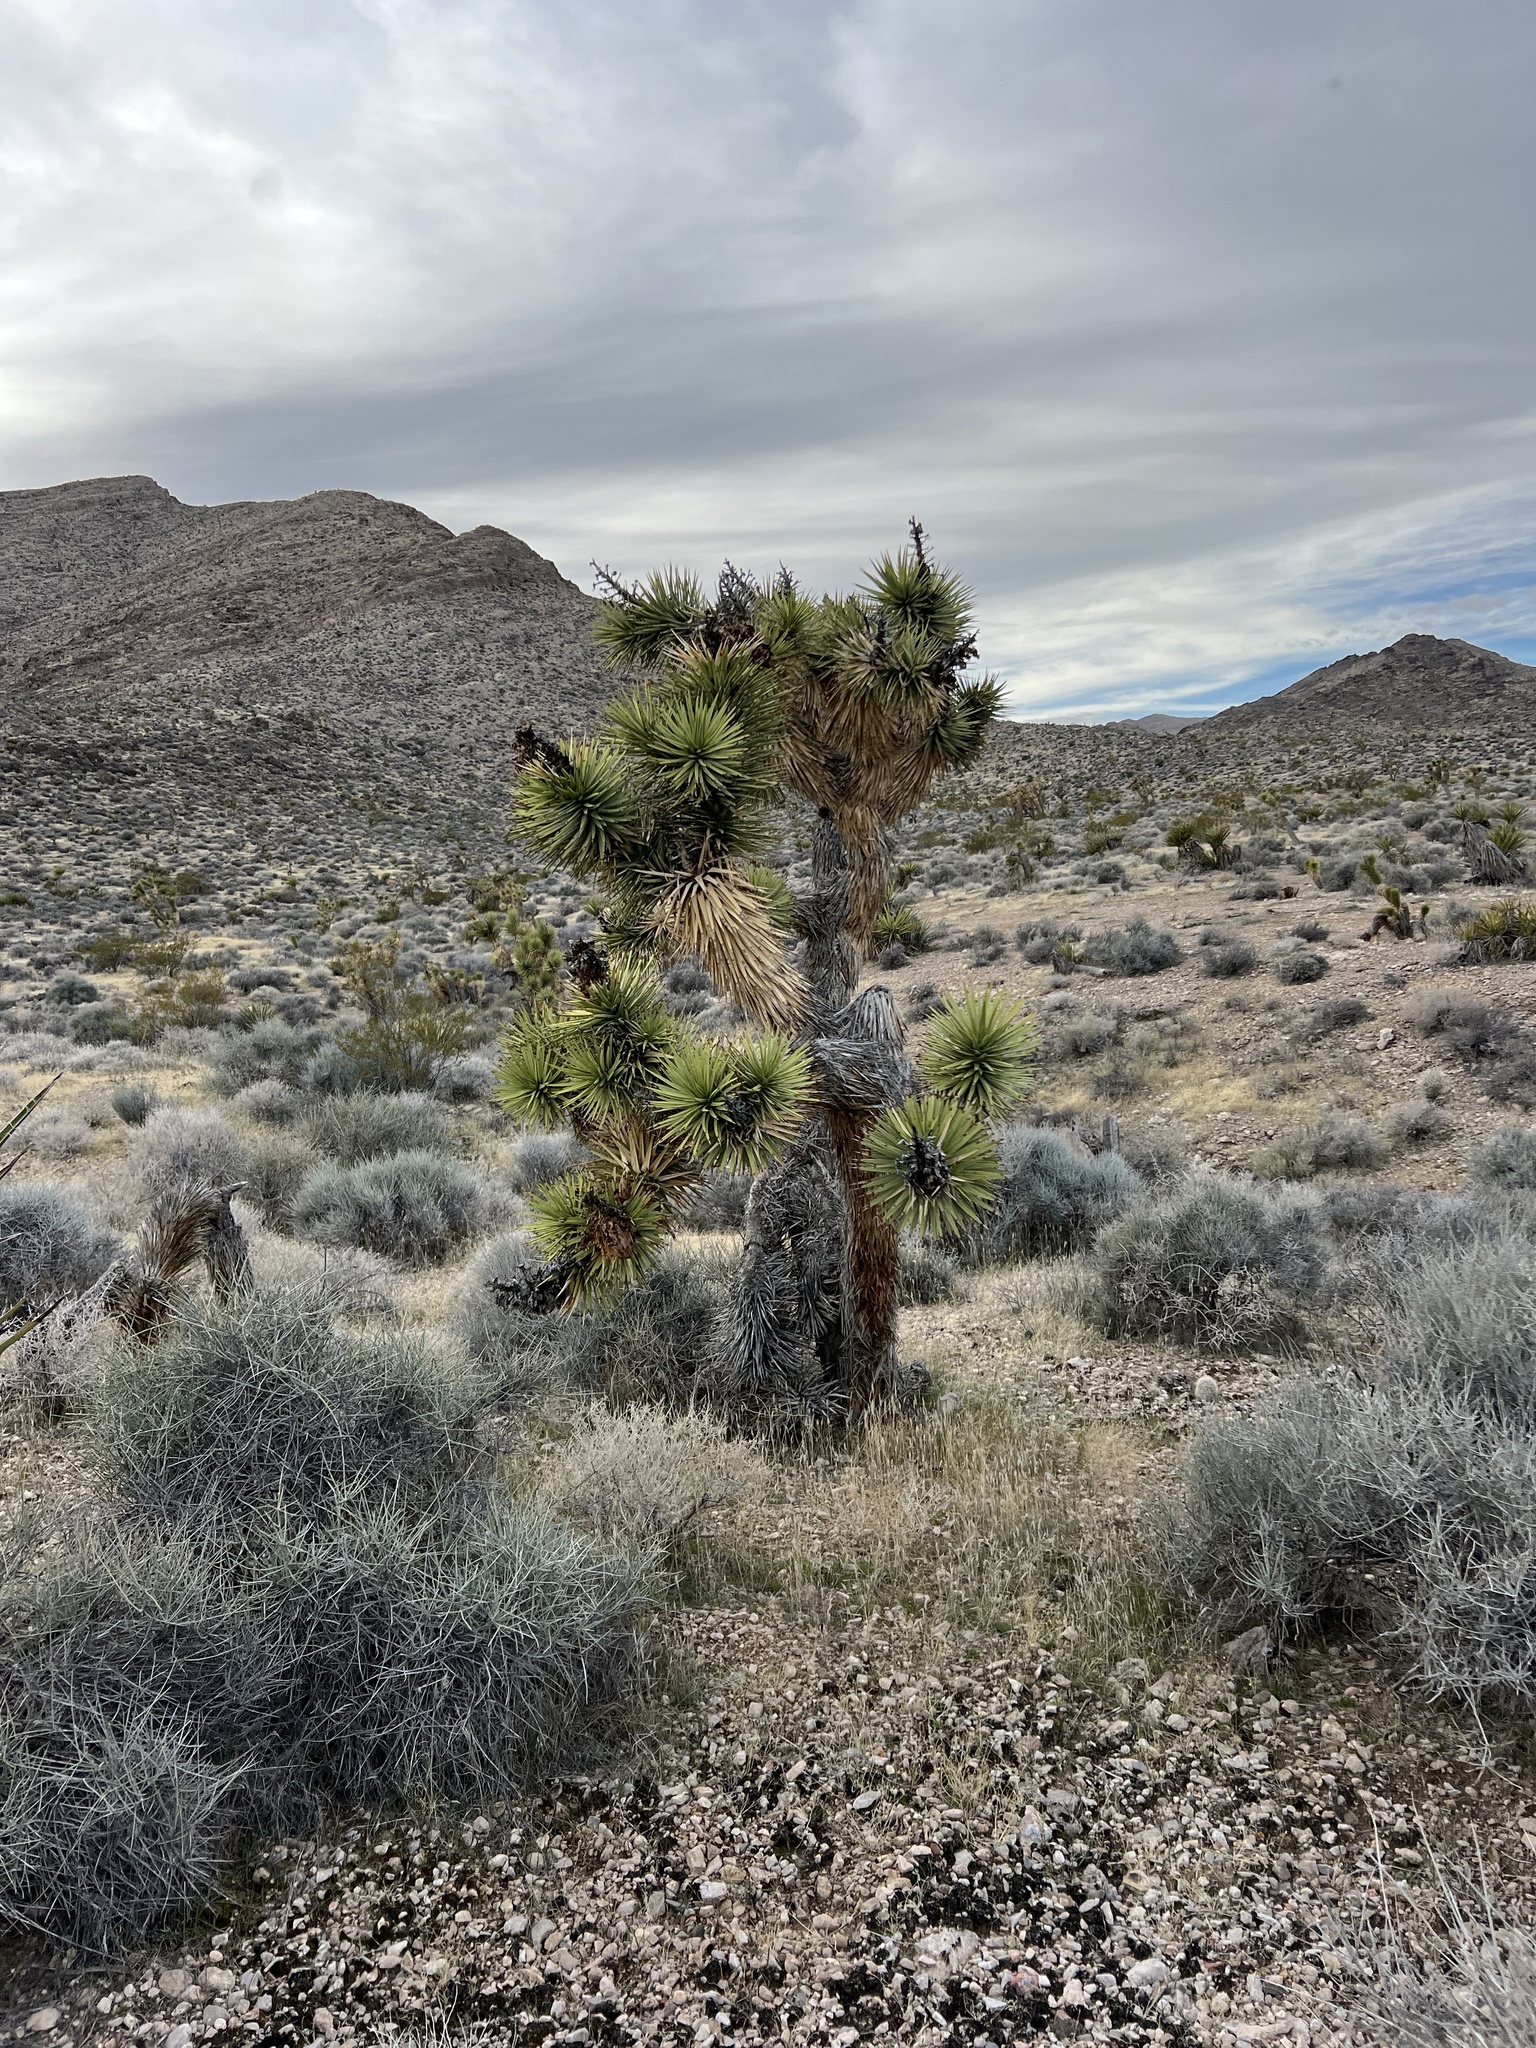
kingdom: Plantae
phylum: Tracheophyta
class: Liliopsida
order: Asparagales
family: Asparagaceae
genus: Yucca
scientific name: Yucca brevifolia
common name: Joshua tree
